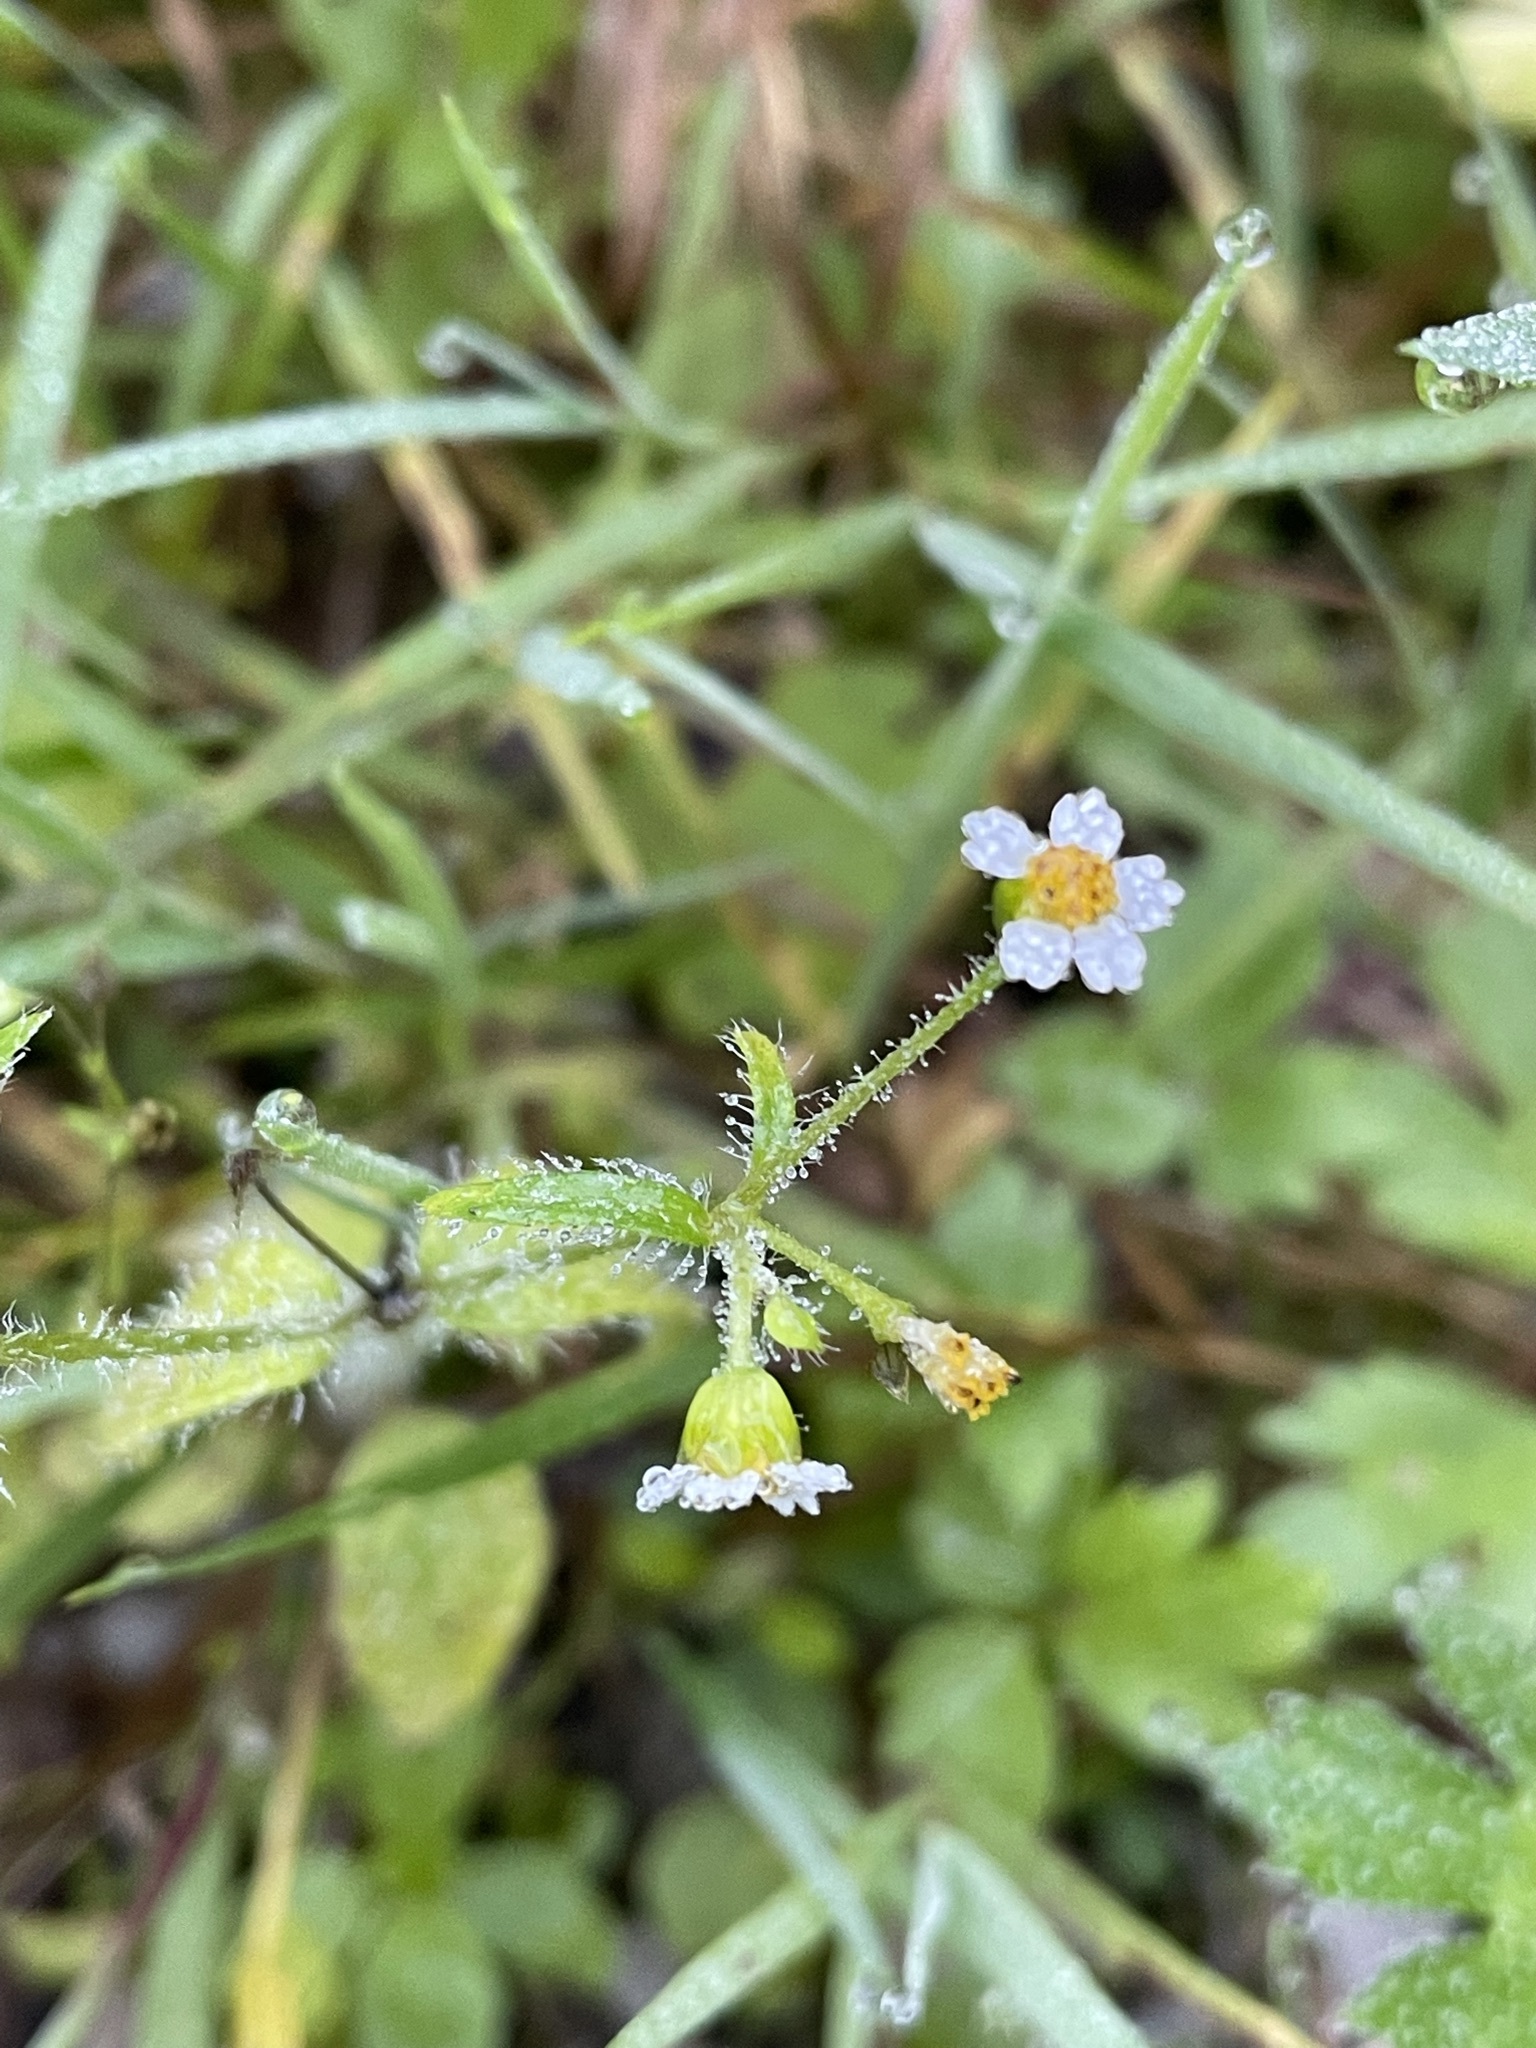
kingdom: Plantae
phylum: Tracheophyta
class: Magnoliopsida
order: Asterales
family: Asteraceae
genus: Galinsoga
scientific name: Galinsoga quadriradiata
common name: Shaggy soldier
